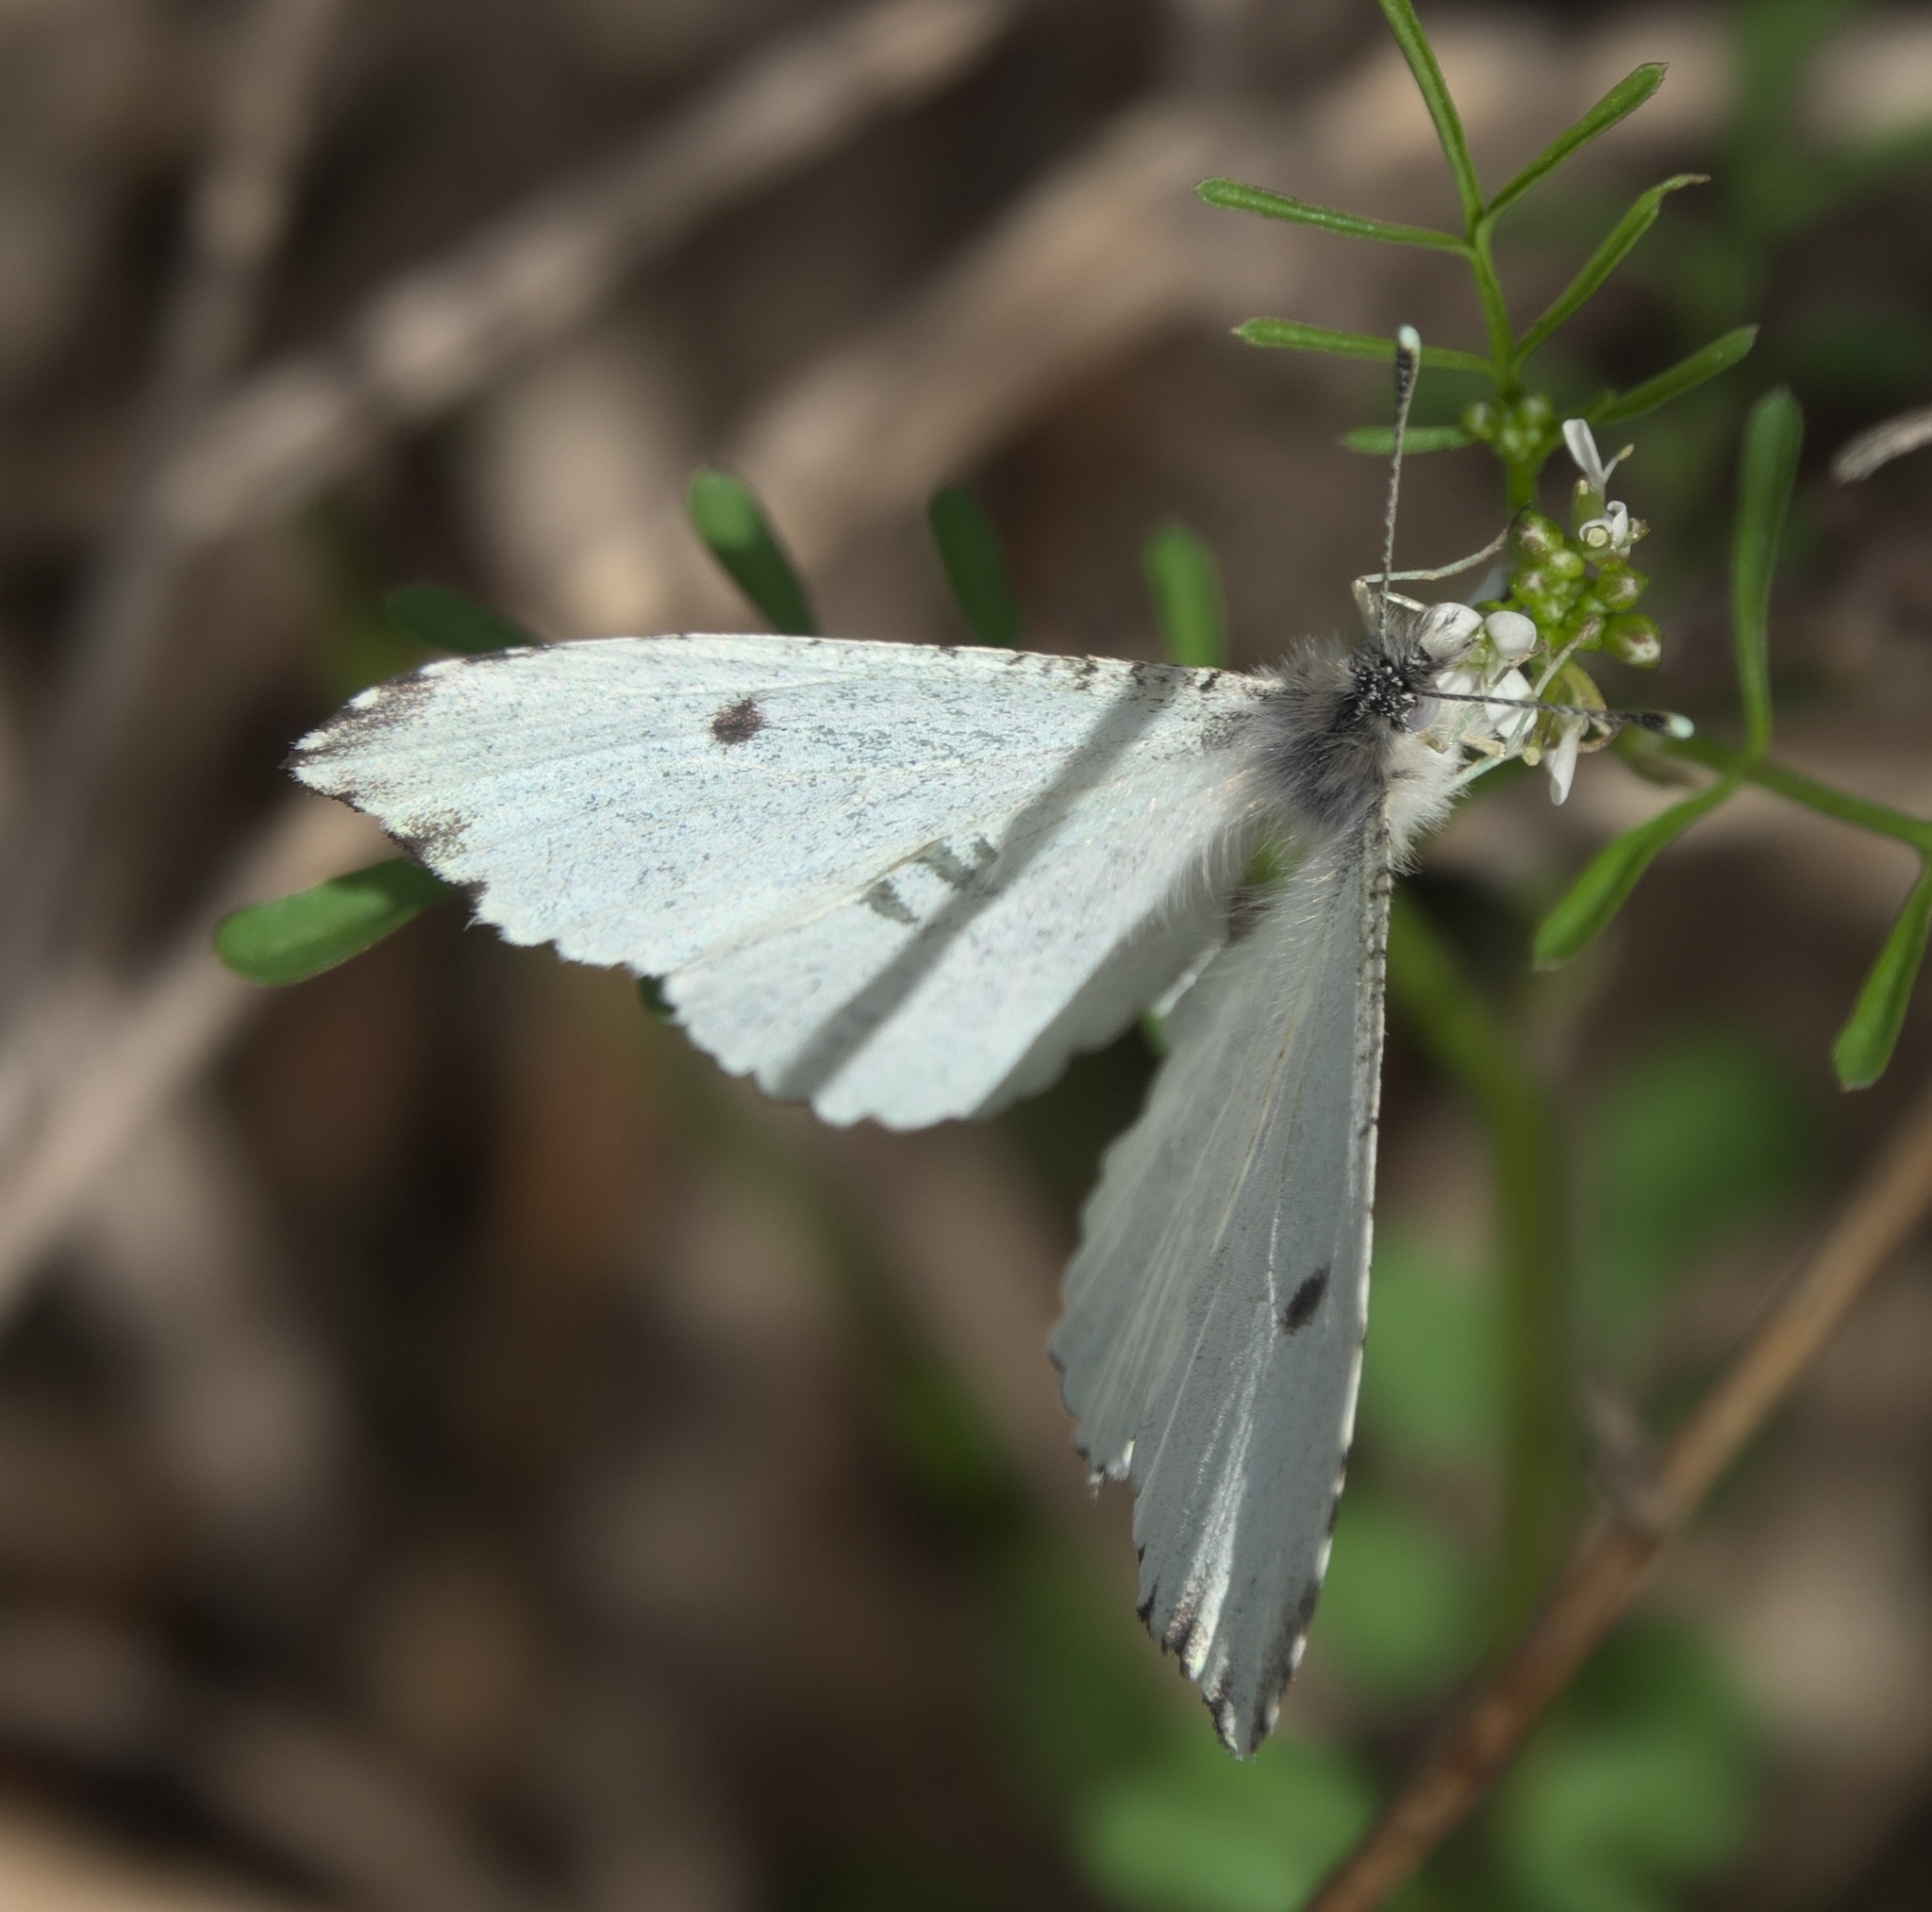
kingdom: Animalia
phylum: Arthropoda
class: Insecta
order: Lepidoptera
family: Pieridae
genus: Anthocharis
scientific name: Anthocharis midea
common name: Falcate orangetip
